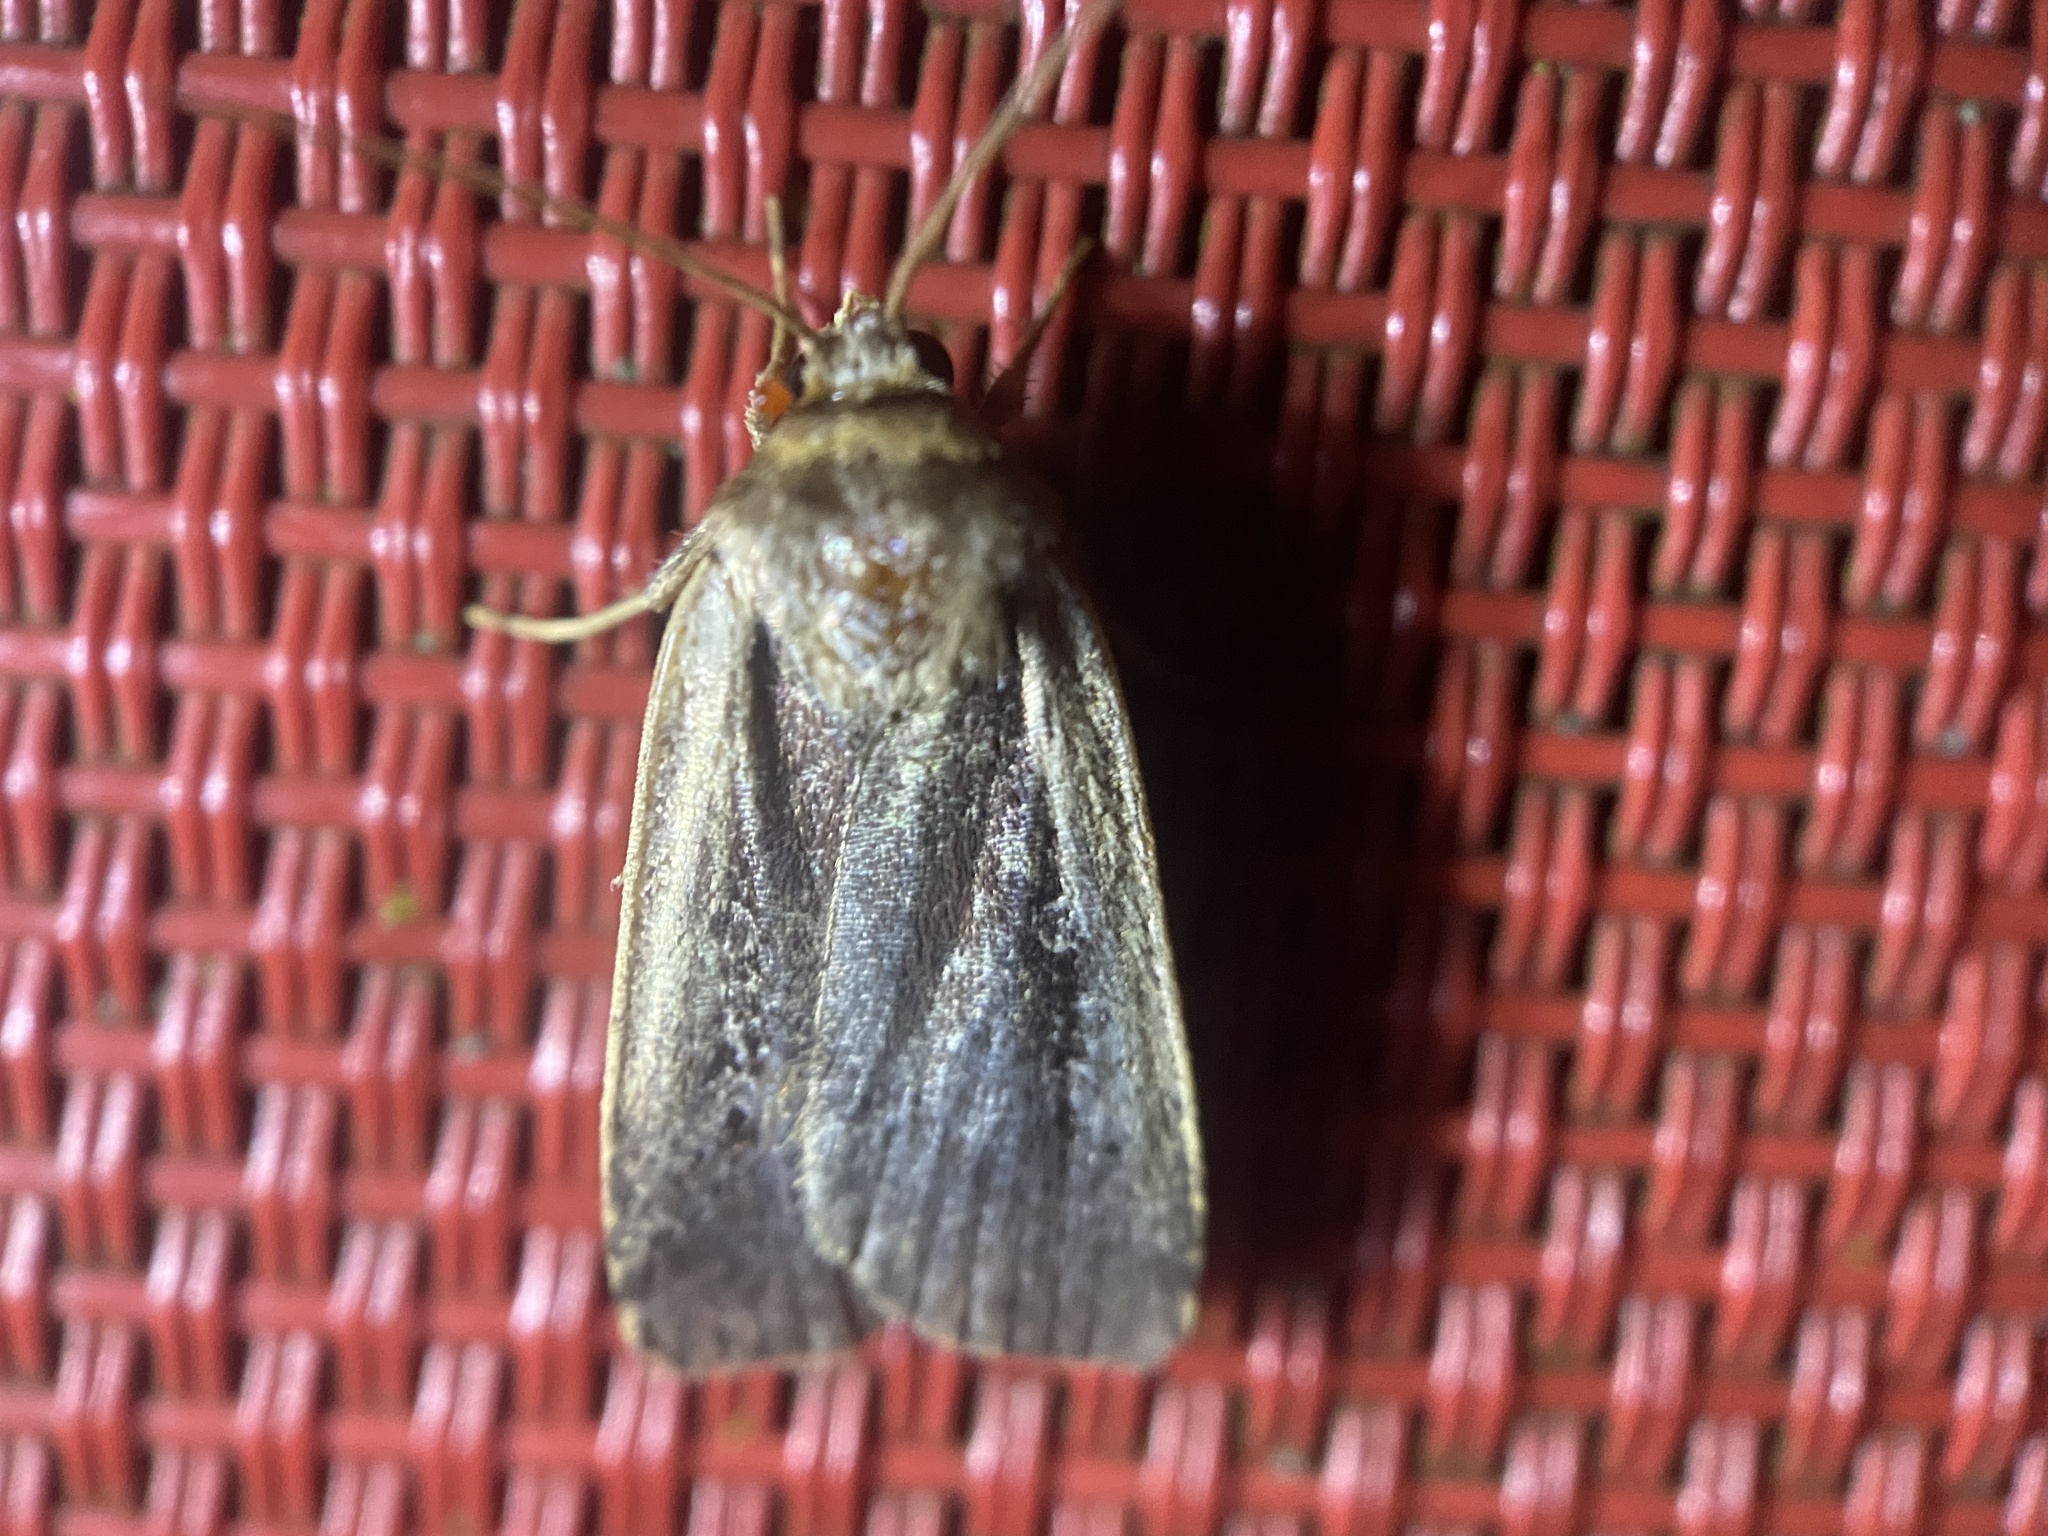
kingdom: Animalia
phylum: Arthropoda
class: Insecta
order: Lepidoptera
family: Noctuidae
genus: Ochropleura
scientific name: Ochropleura implecta
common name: Flame-shouldered dart
